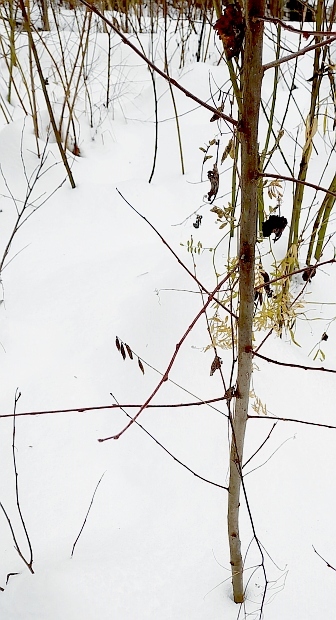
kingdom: Plantae
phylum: Tracheophyta
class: Magnoliopsida
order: Fabales
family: Fabaceae
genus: Vicia
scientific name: Vicia cracca
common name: Bird vetch
